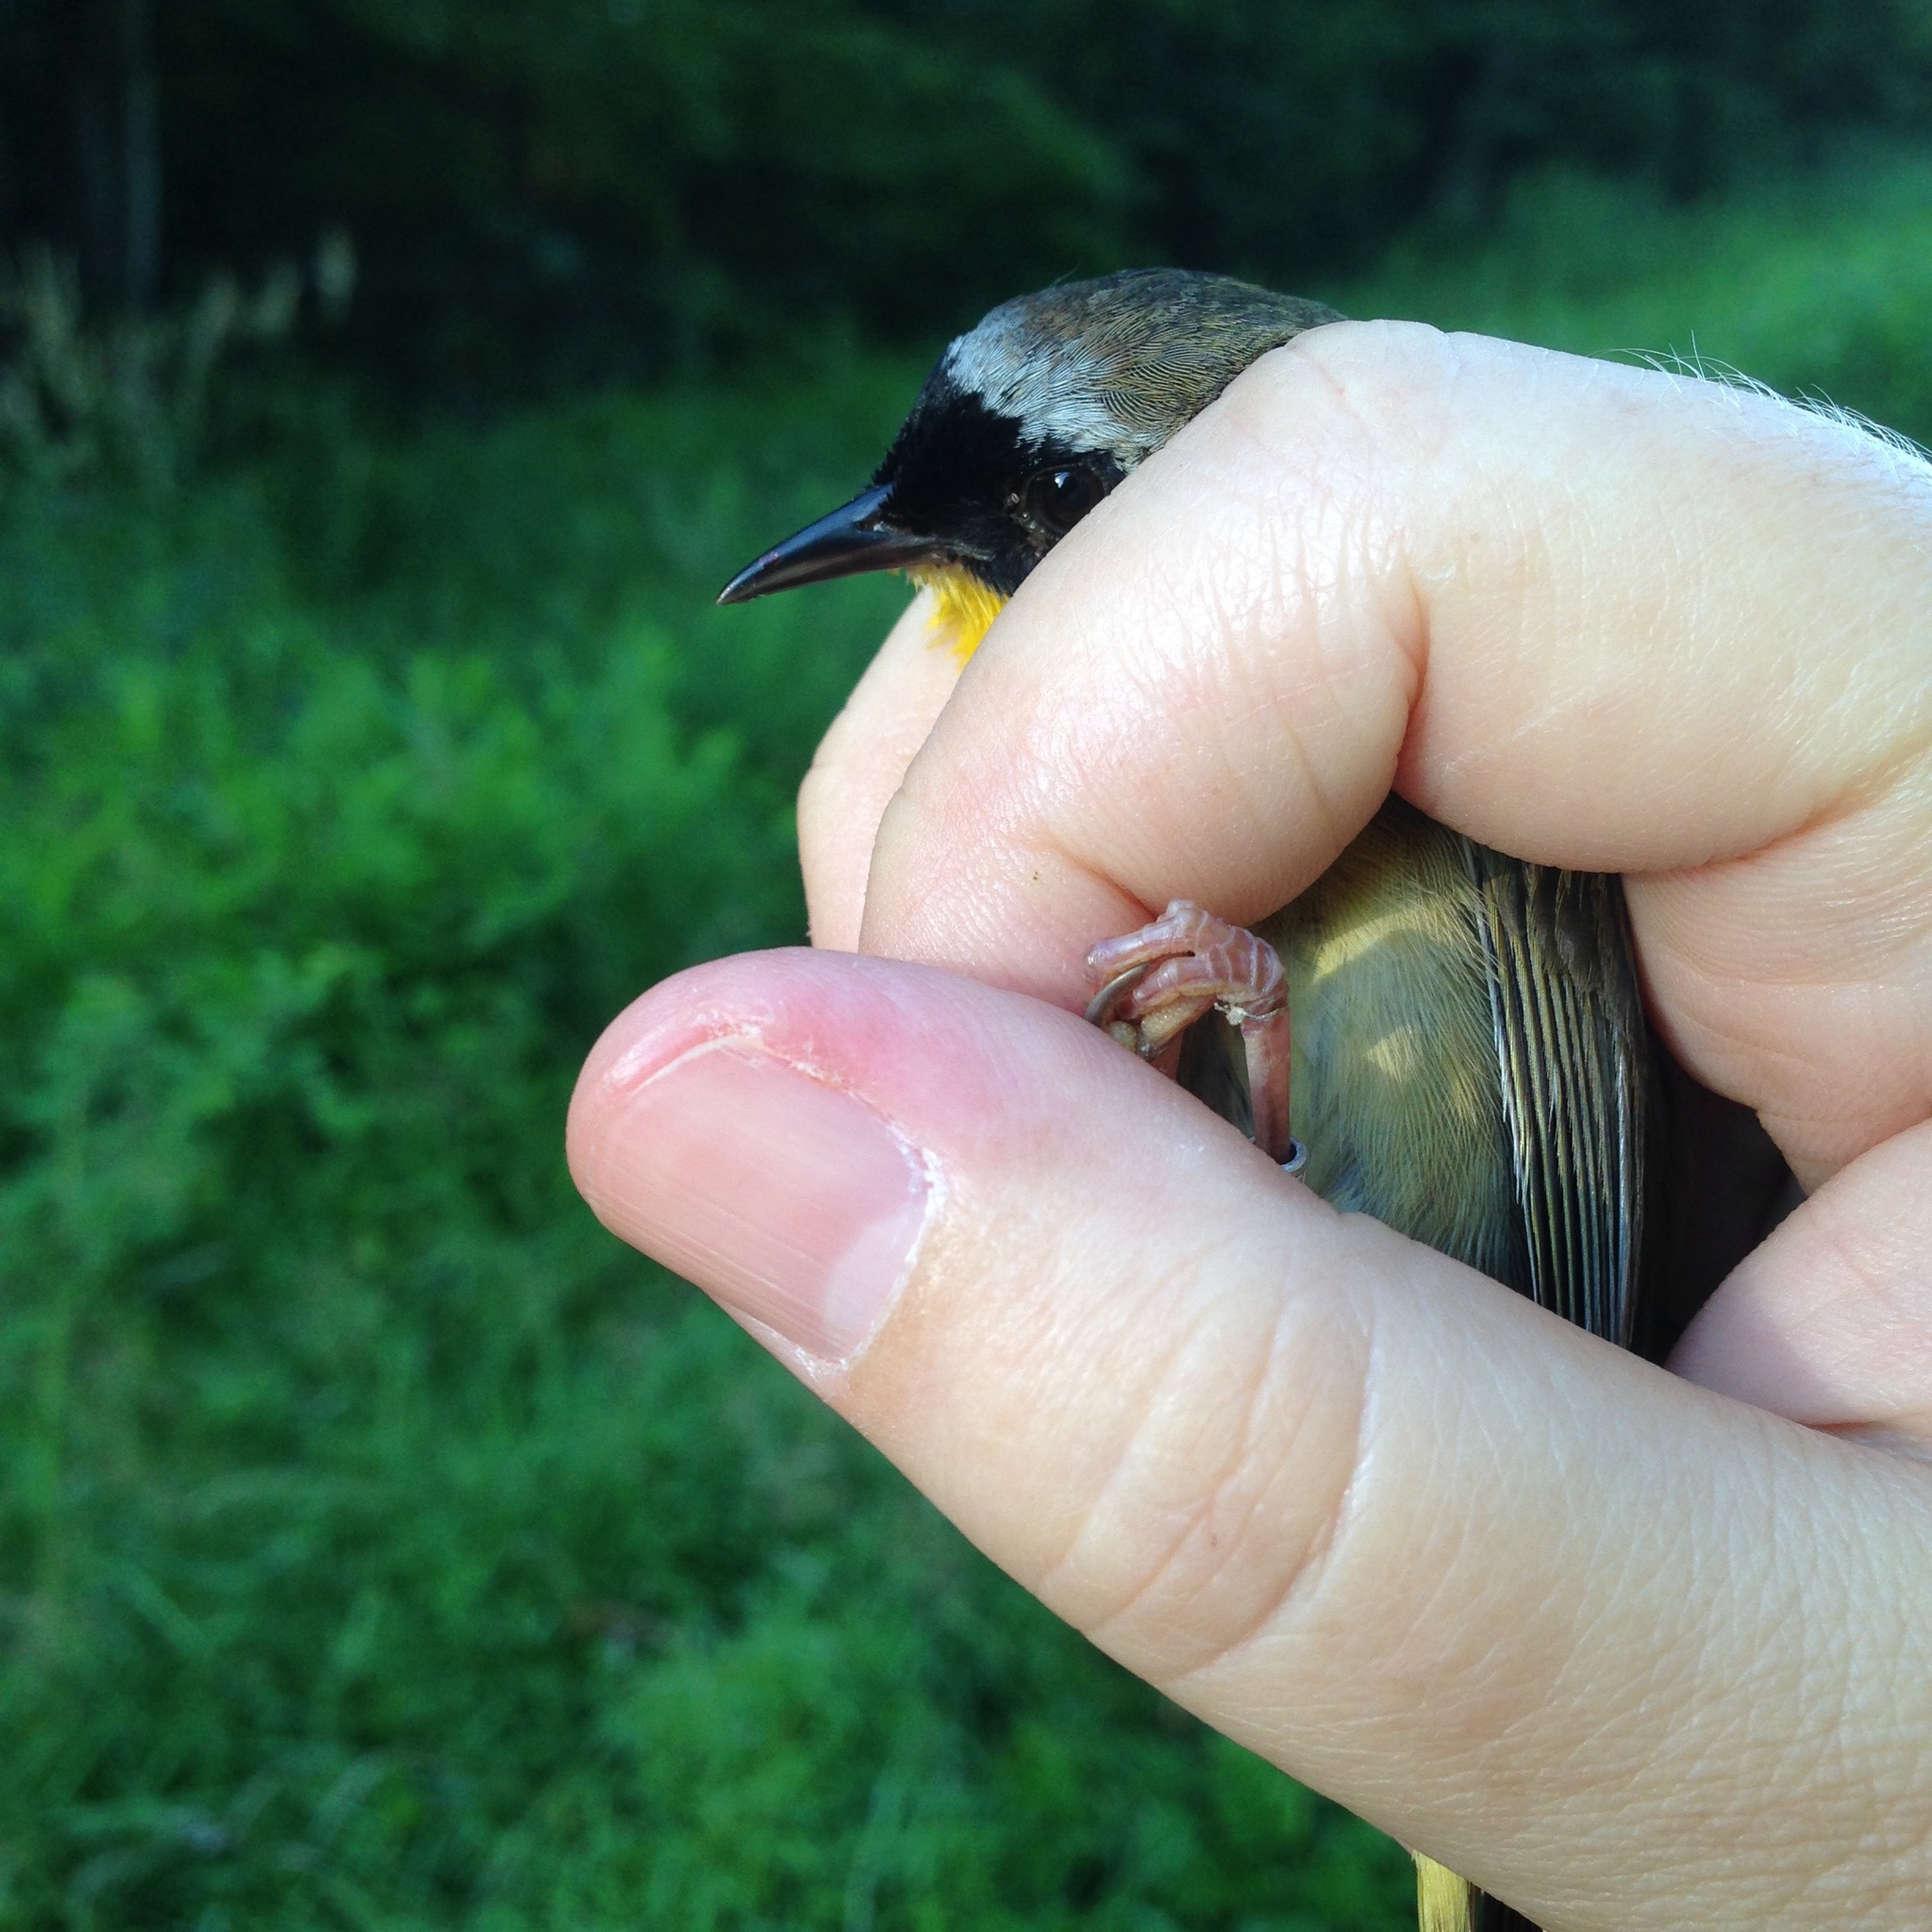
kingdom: Animalia
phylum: Chordata
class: Aves
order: Passeriformes
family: Parulidae
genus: Geothlypis
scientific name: Geothlypis trichas
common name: Common yellowthroat
